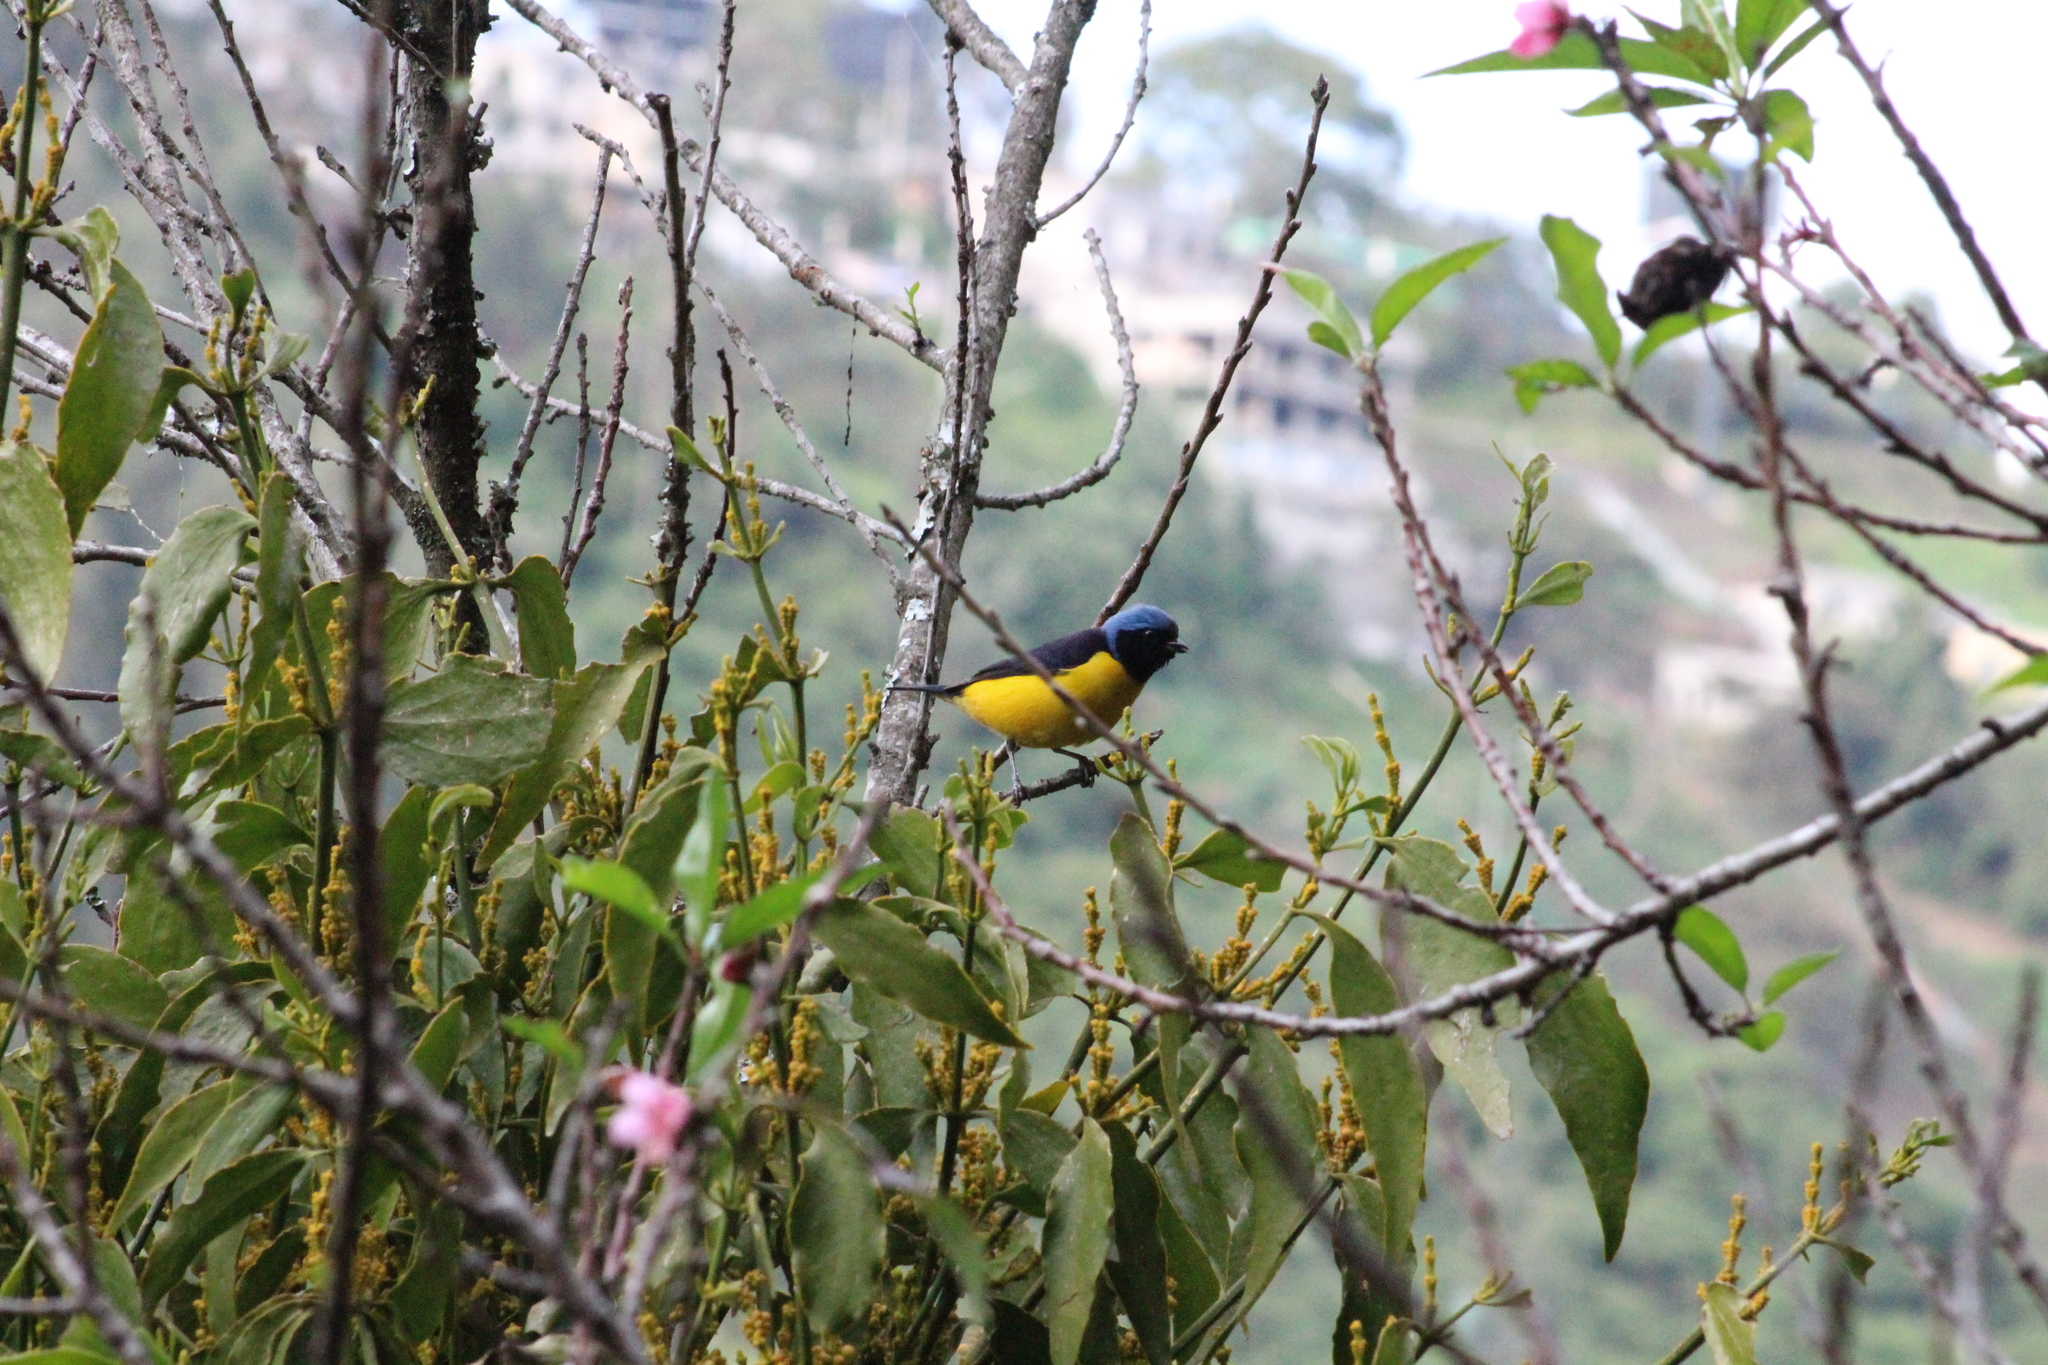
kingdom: Animalia
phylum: Chordata
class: Aves
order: Passeriformes
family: Fringillidae
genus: Euphonia
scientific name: Euphonia cyanocephala
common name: Golden-rumped euphonia
